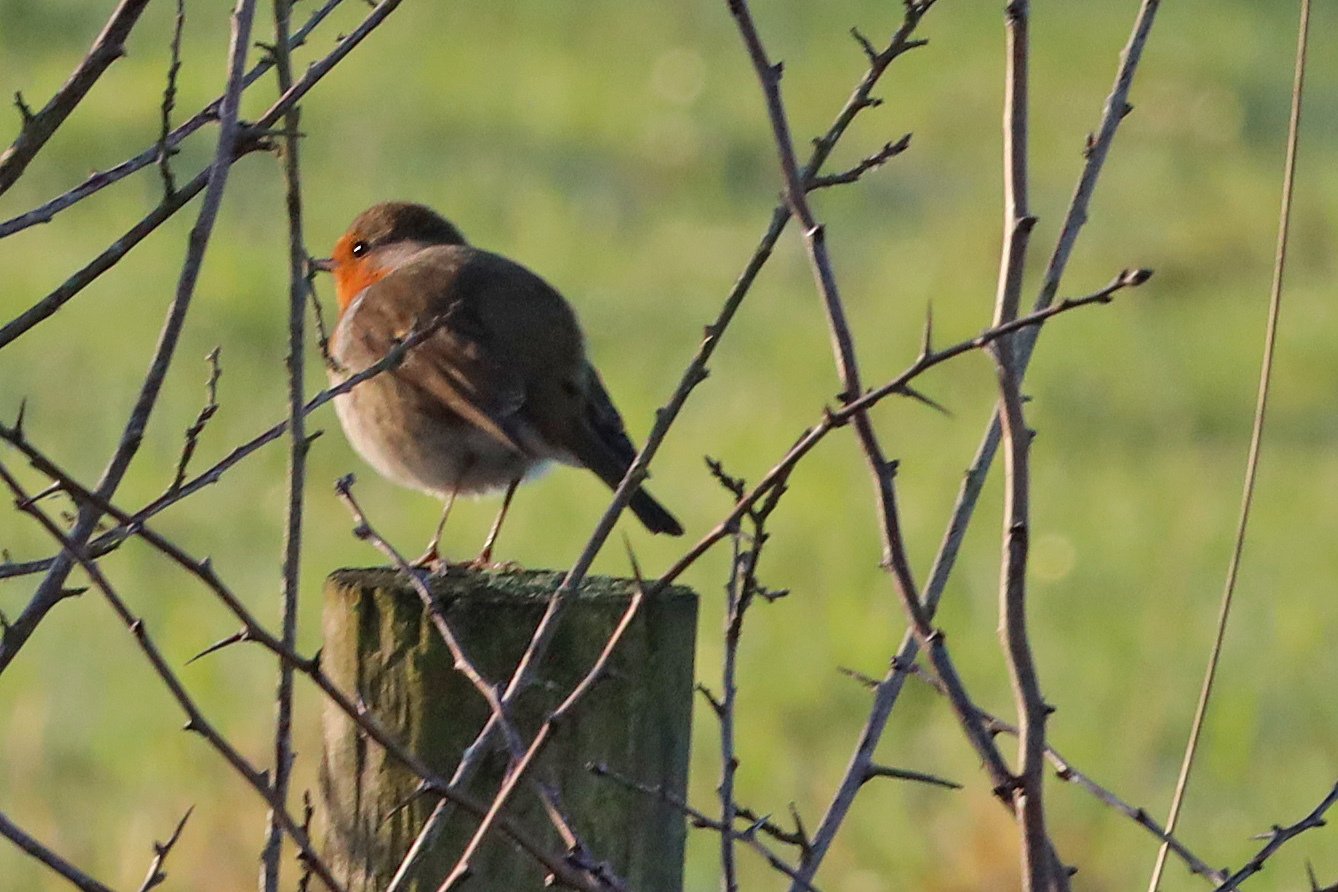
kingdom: Animalia
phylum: Chordata
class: Aves
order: Passeriformes
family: Muscicapidae
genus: Erithacus
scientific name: Erithacus rubecula
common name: European robin
